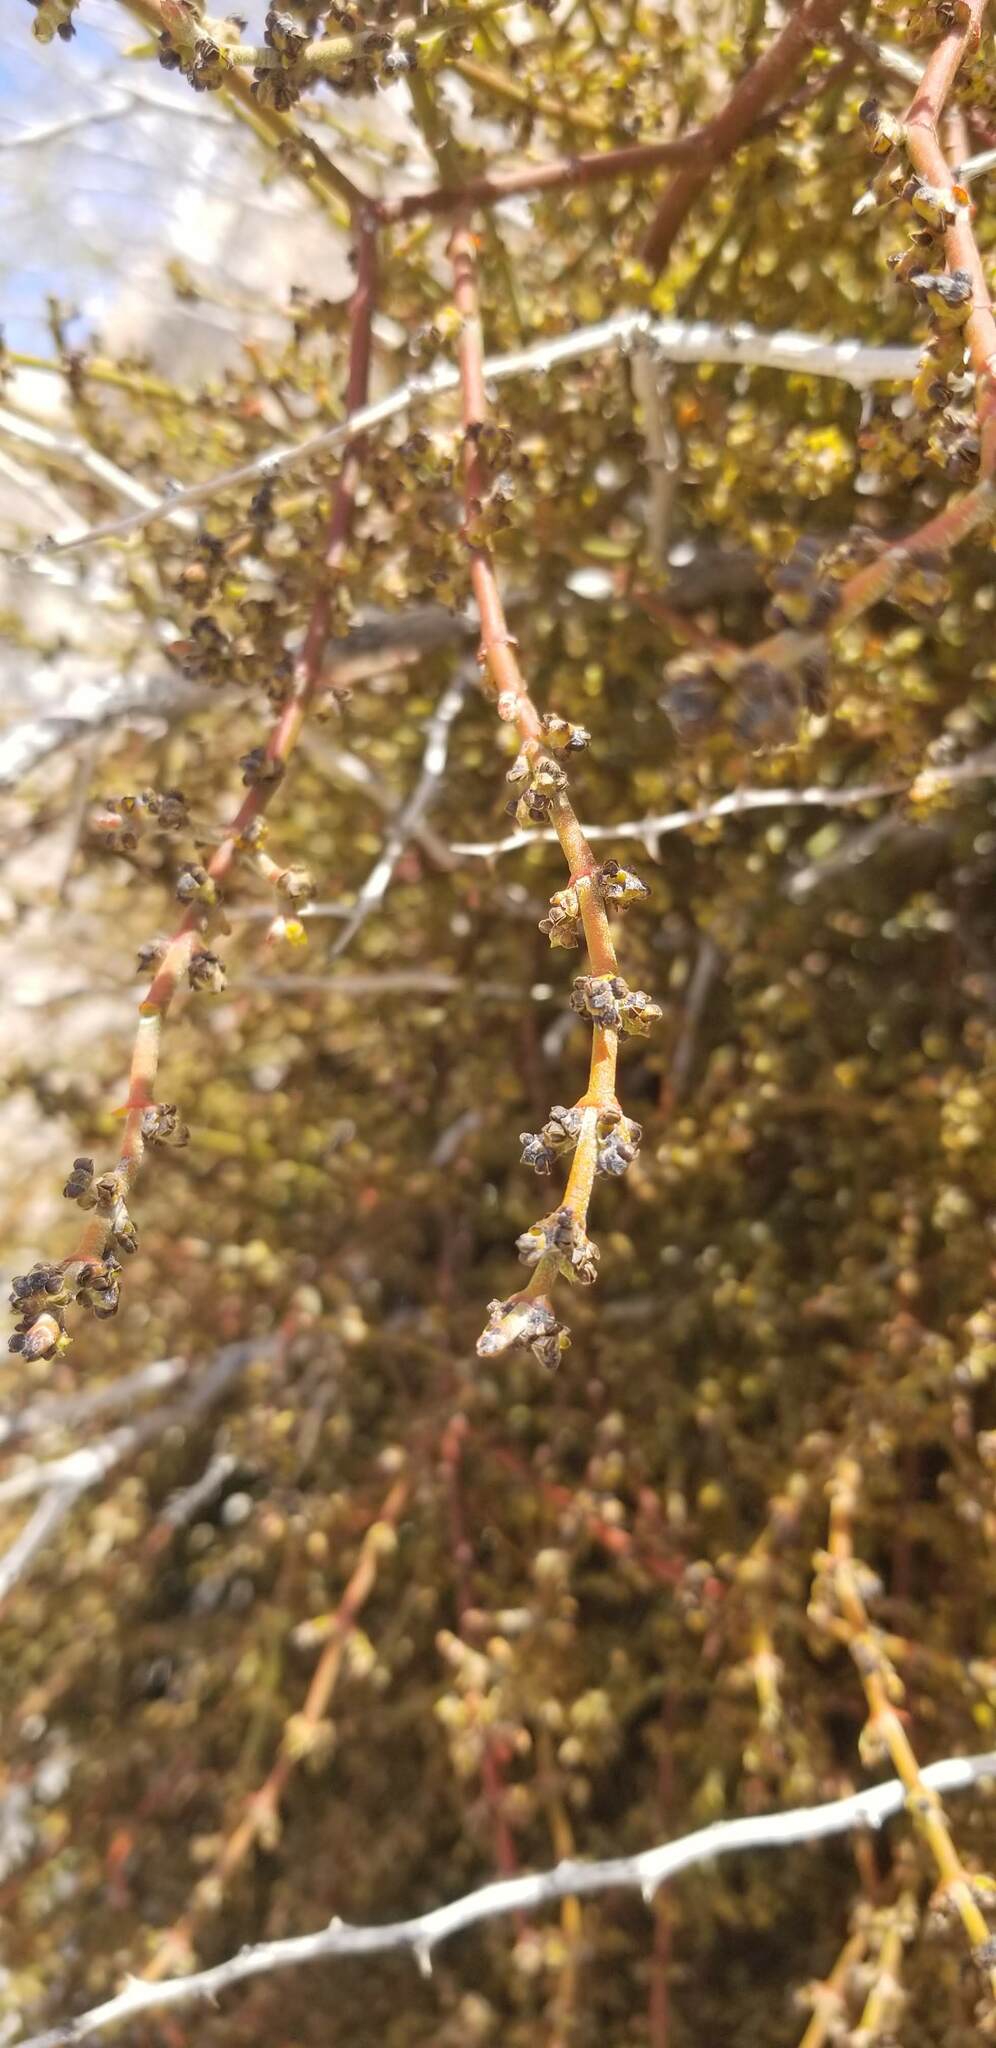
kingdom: Plantae
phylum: Tracheophyta
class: Magnoliopsida
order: Santalales
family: Viscaceae
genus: Phoradendron
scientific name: Phoradendron californicum
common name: Acacia mistletoe
